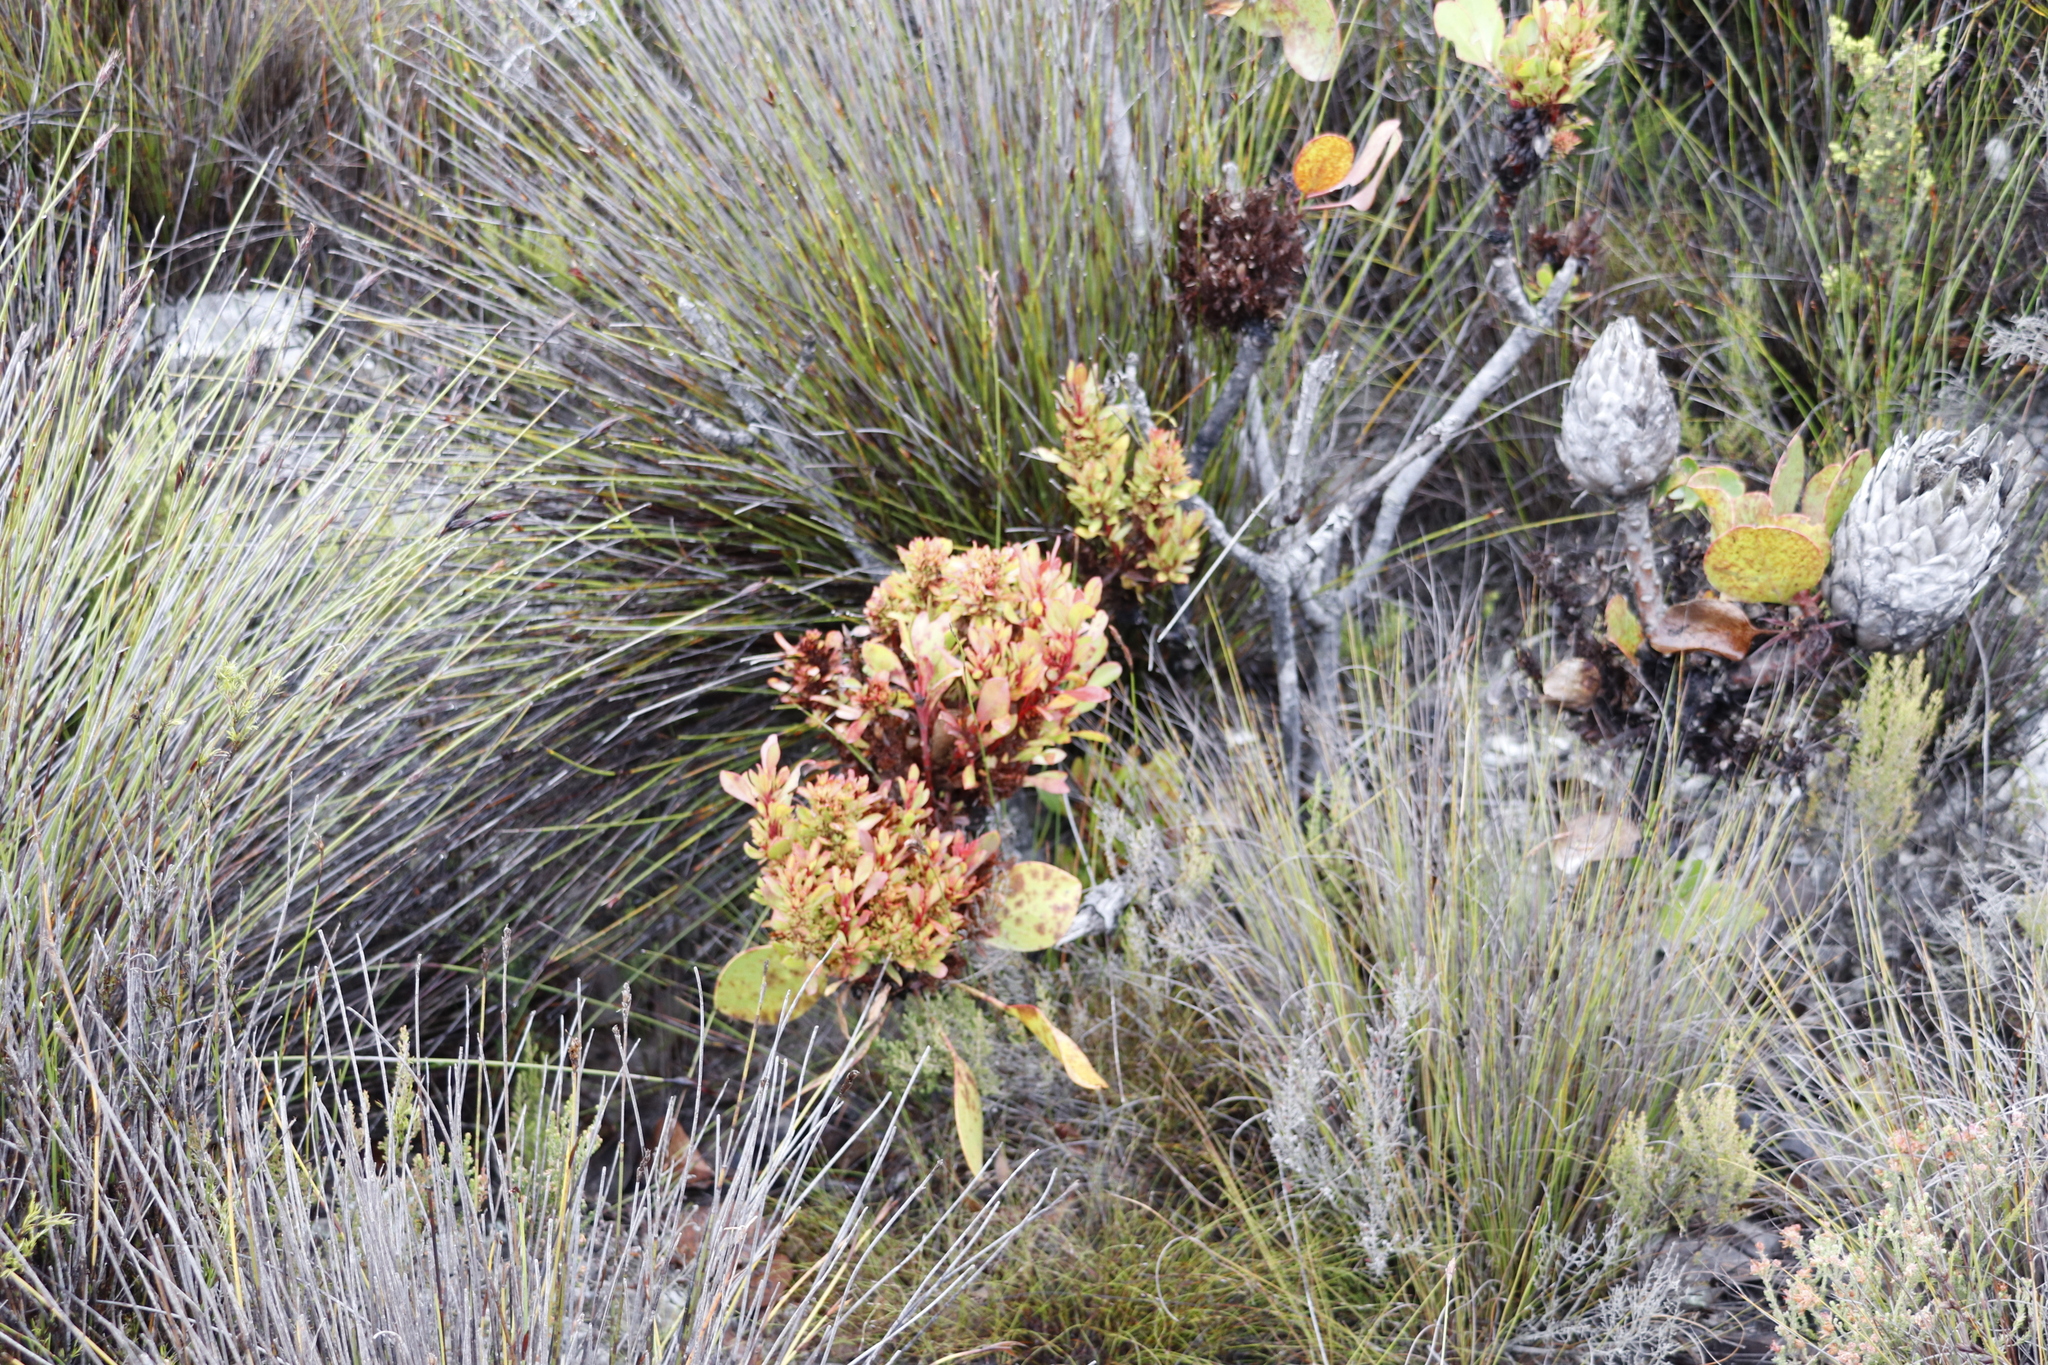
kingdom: Bacteria
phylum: Firmicutes
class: Bacilli
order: Acholeplasmatales
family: Acholeplasmataceae
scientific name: Acholeplasmataceae
